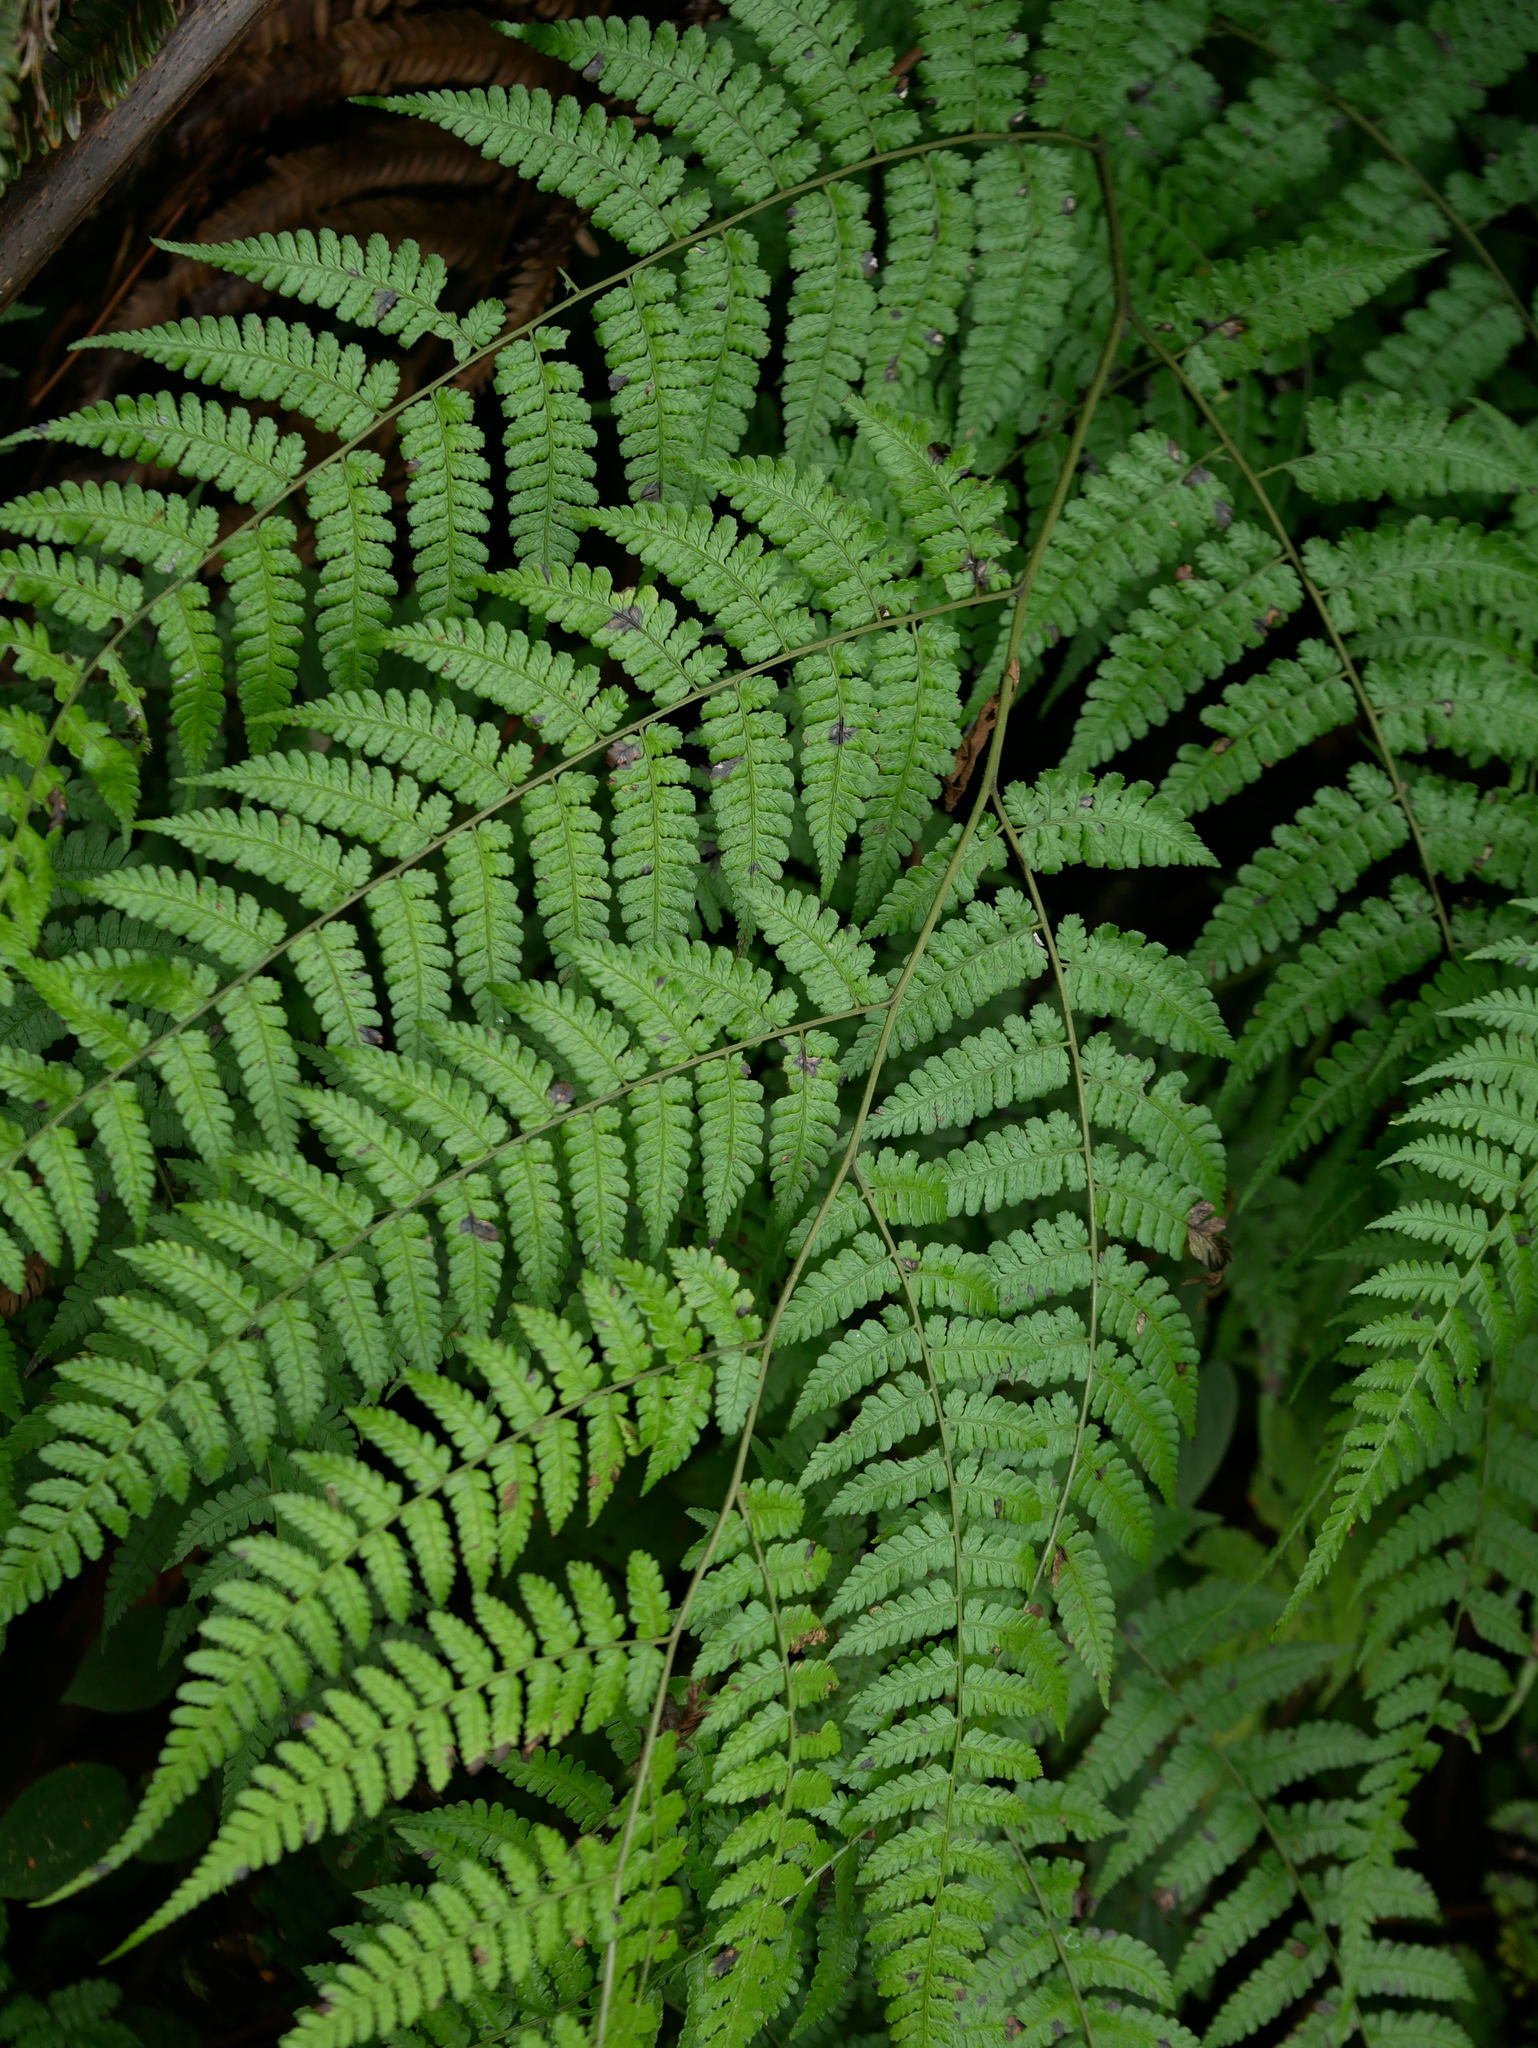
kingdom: Plantae
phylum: Tracheophyta
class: Polypodiopsida
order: Polypodiales
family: Athyriaceae
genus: Diplazium
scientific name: Diplazium laxifrons
